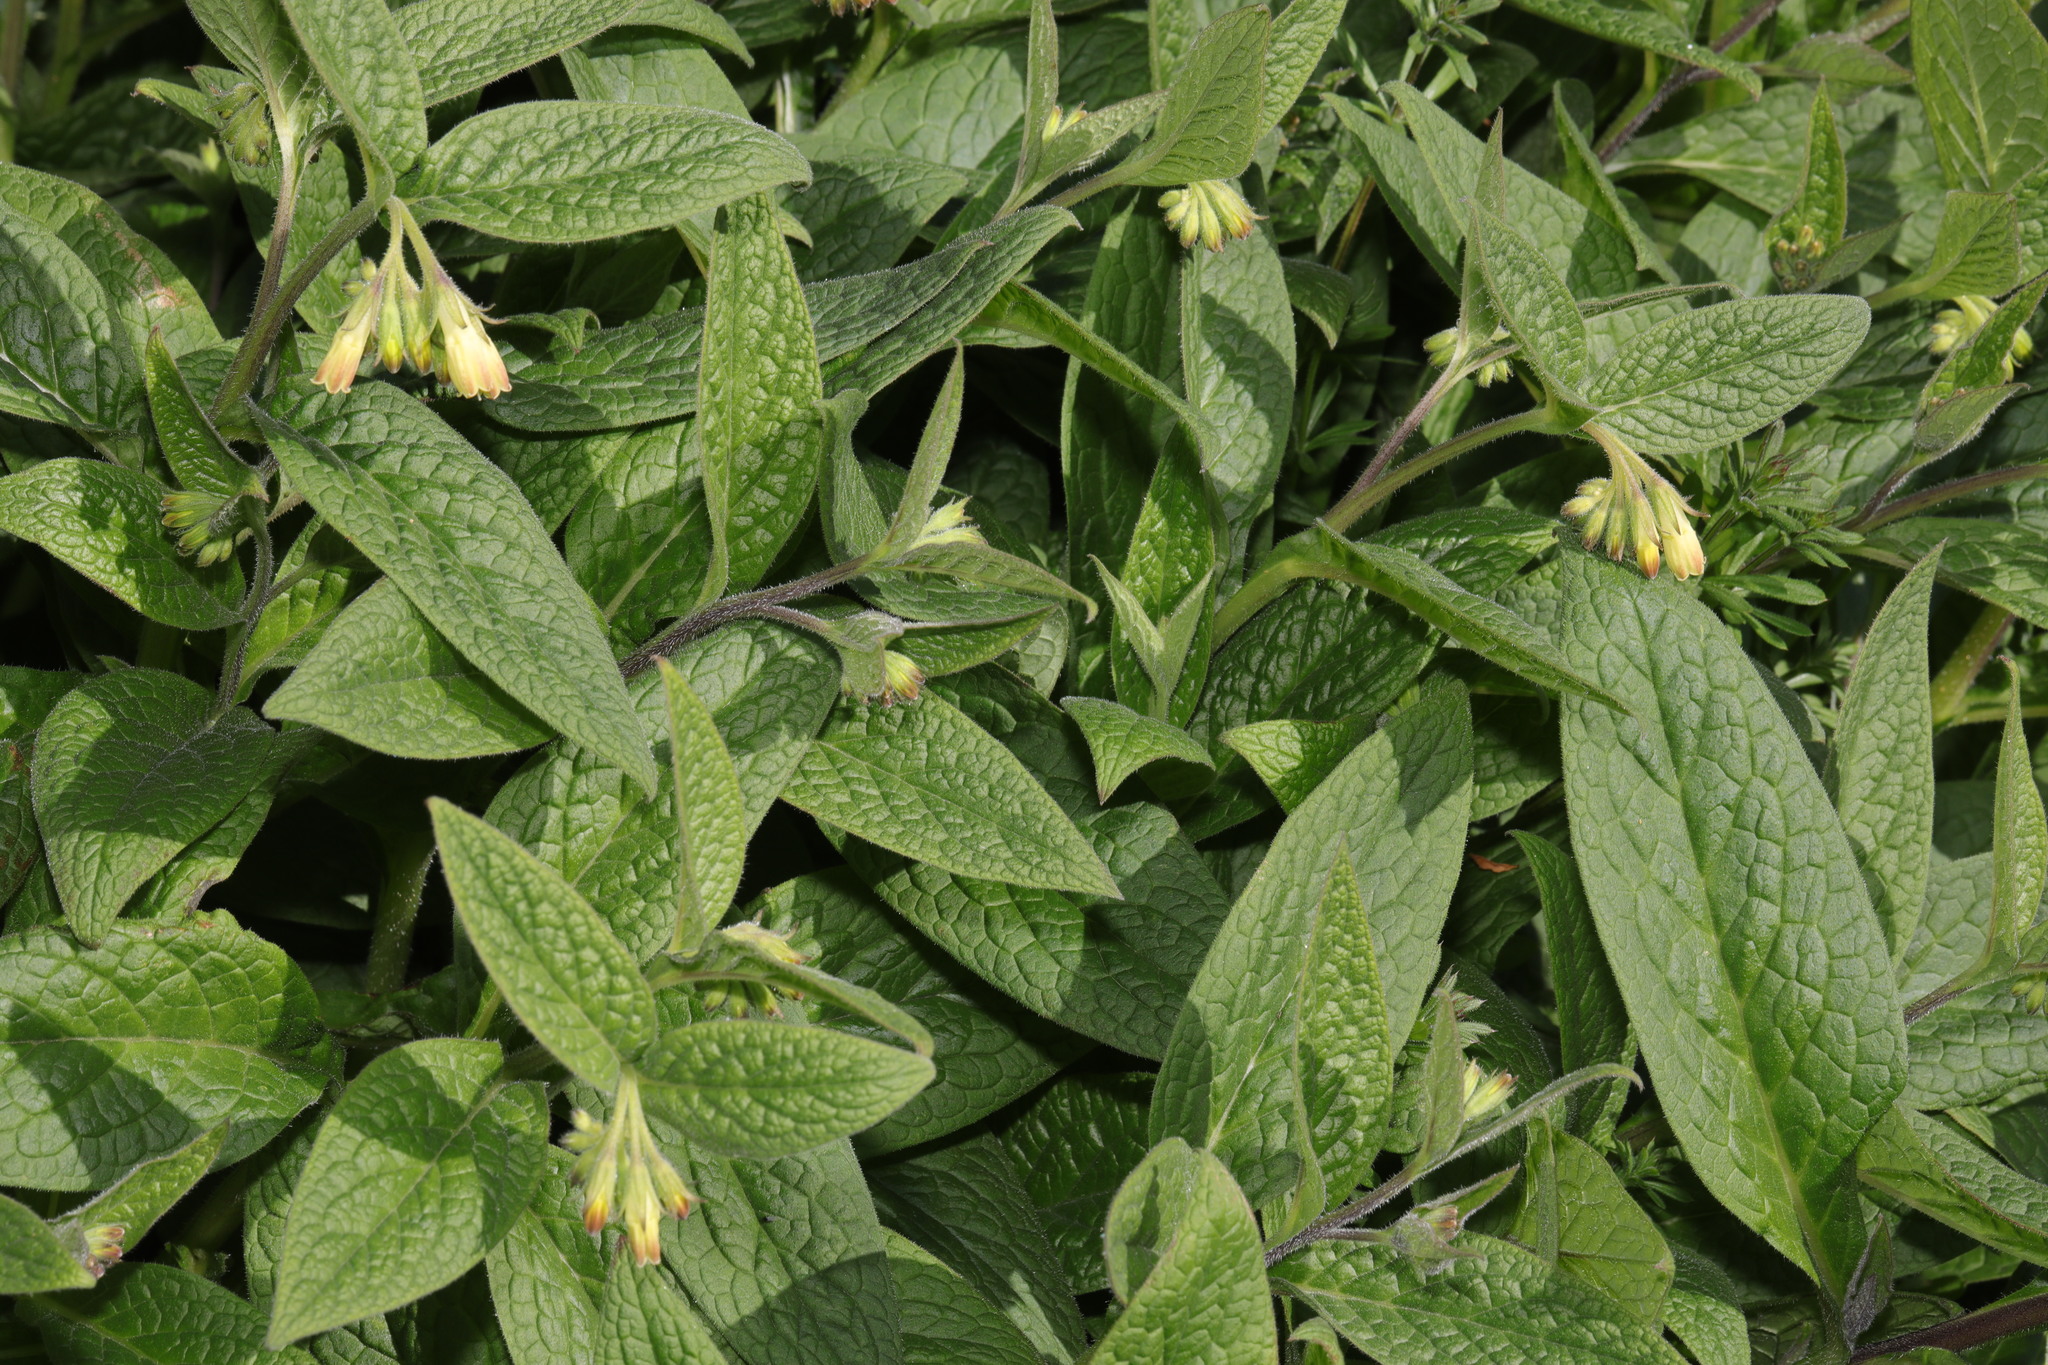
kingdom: Plantae
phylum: Tracheophyta
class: Magnoliopsida
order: Boraginales
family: Boraginaceae
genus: Symphytum
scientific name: Symphytum tuberosum
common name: Tuberous comfrey
